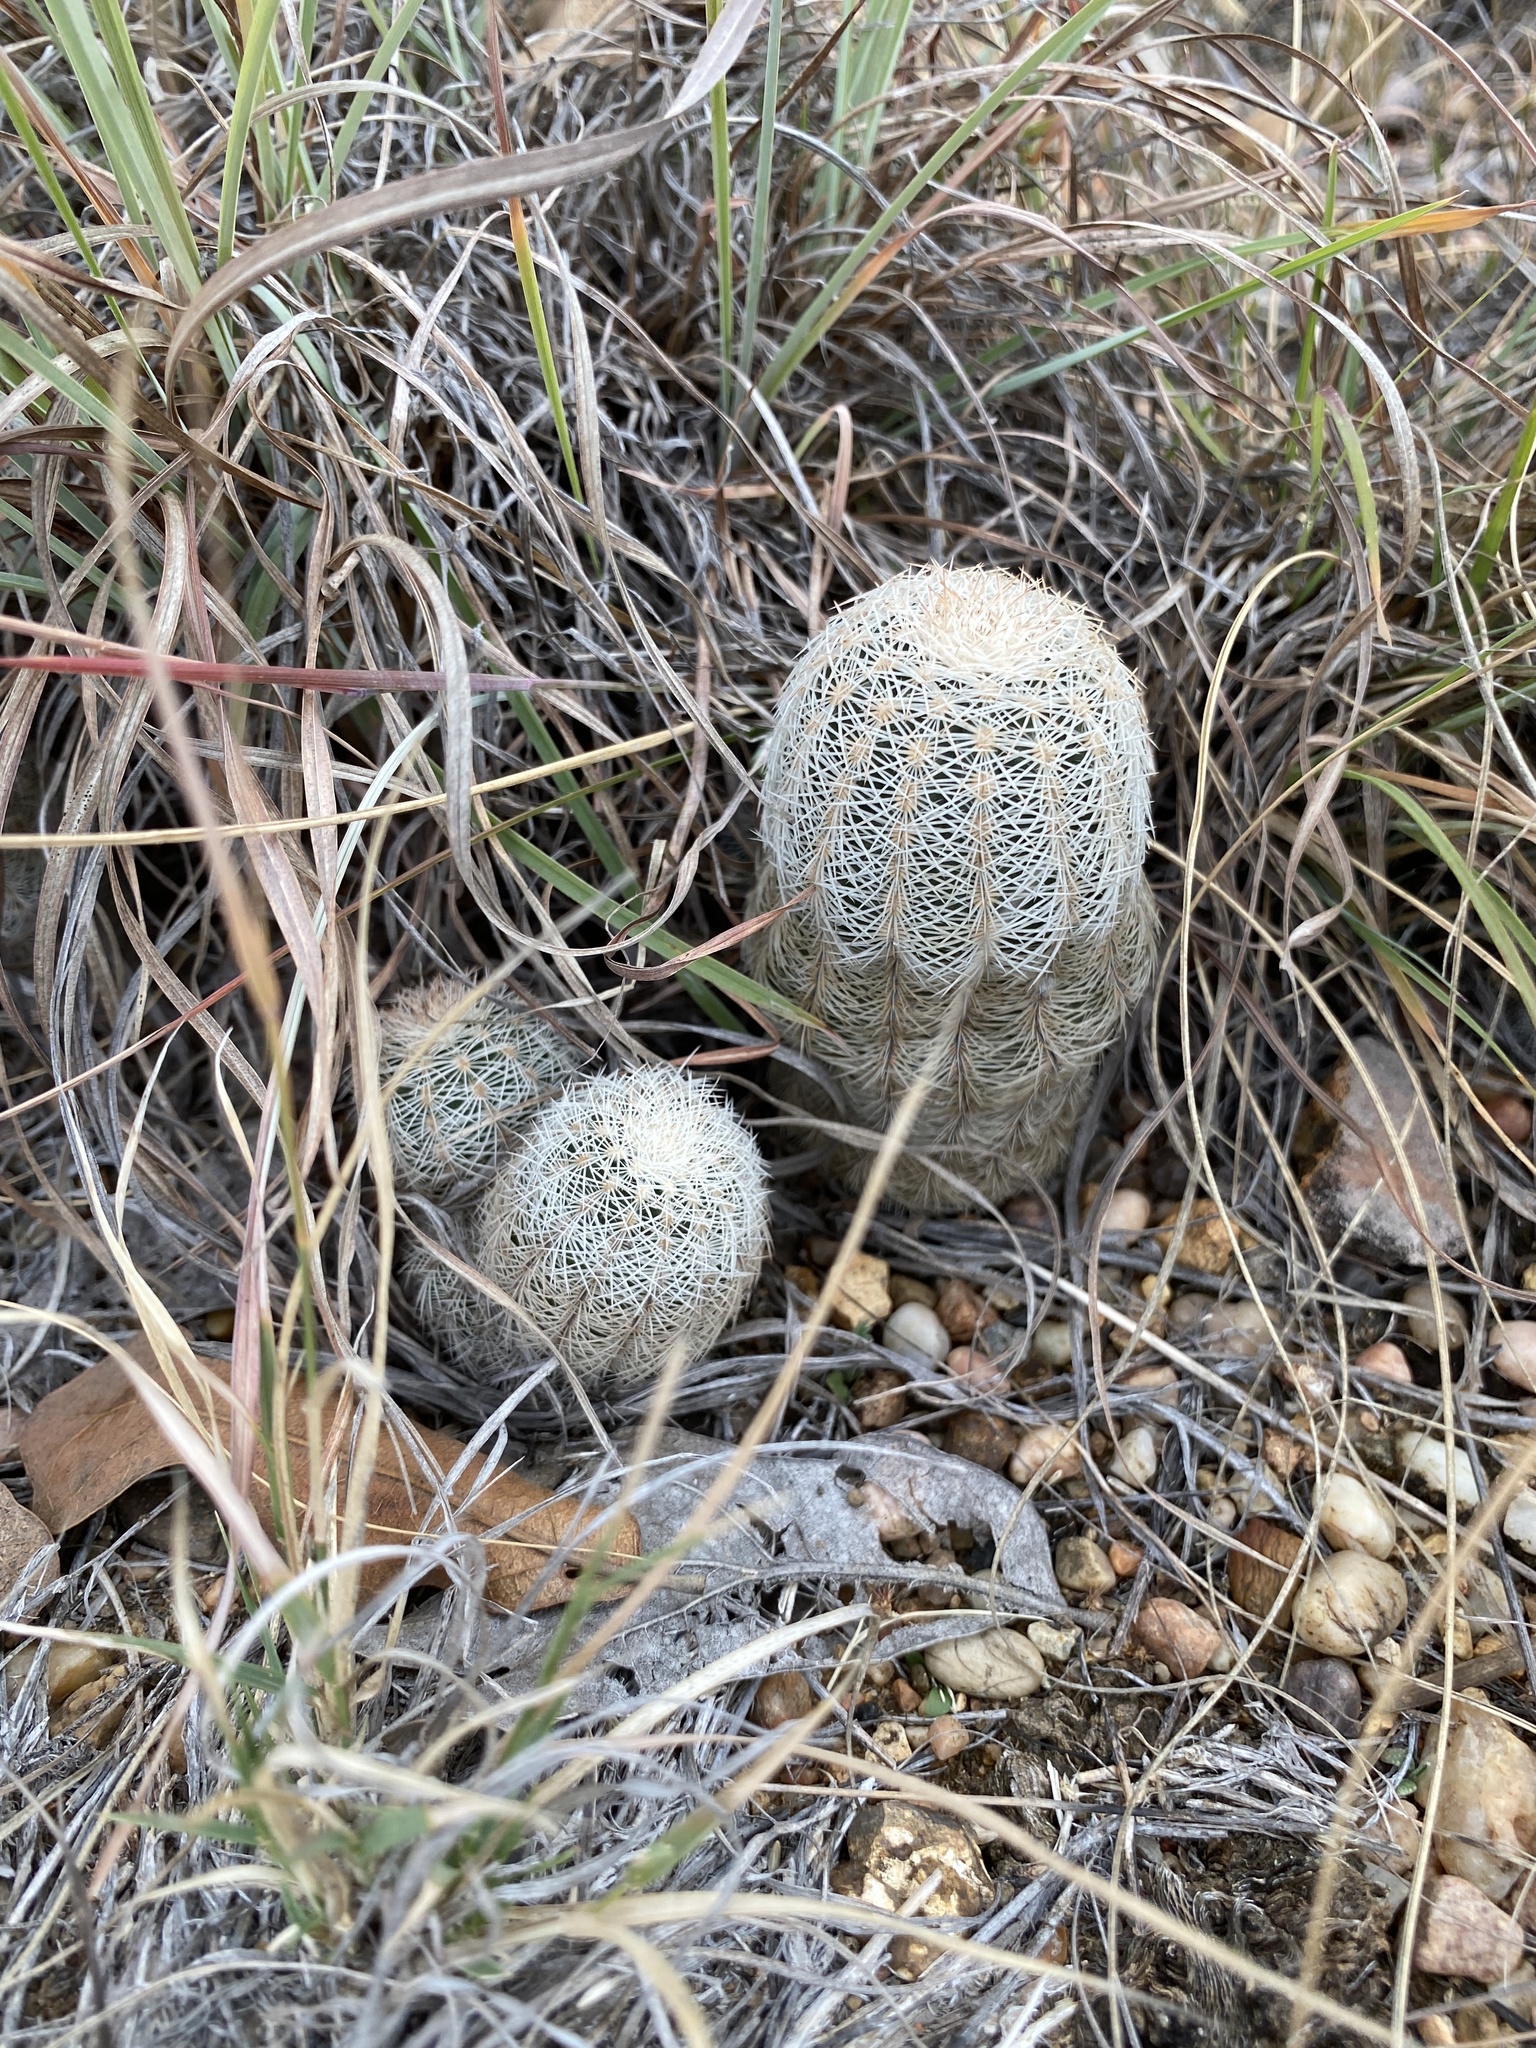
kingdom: Plantae
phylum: Tracheophyta
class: Magnoliopsida
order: Caryophyllales
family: Cactaceae
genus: Echinocereus
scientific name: Echinocereus reichenbachii
